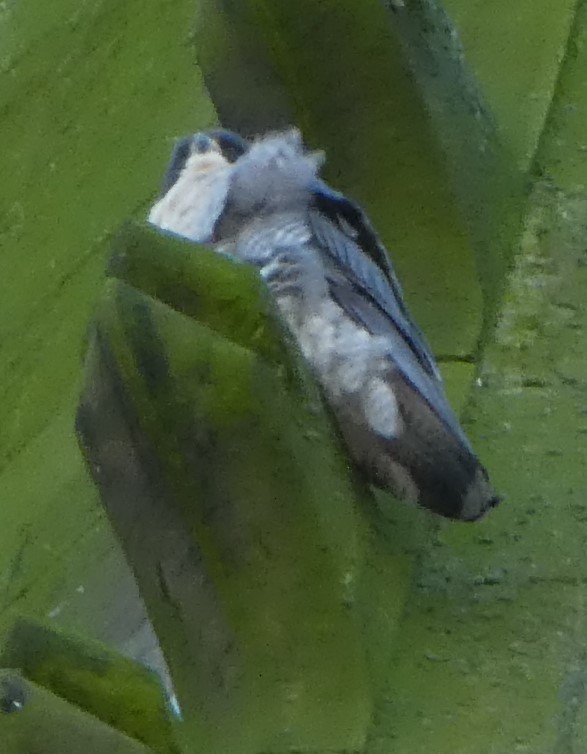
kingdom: Animalia
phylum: Chordata
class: Aves
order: Falconiformes
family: Falconidae
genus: Falco
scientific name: Falco peregrinus
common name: Peregrine falcon
